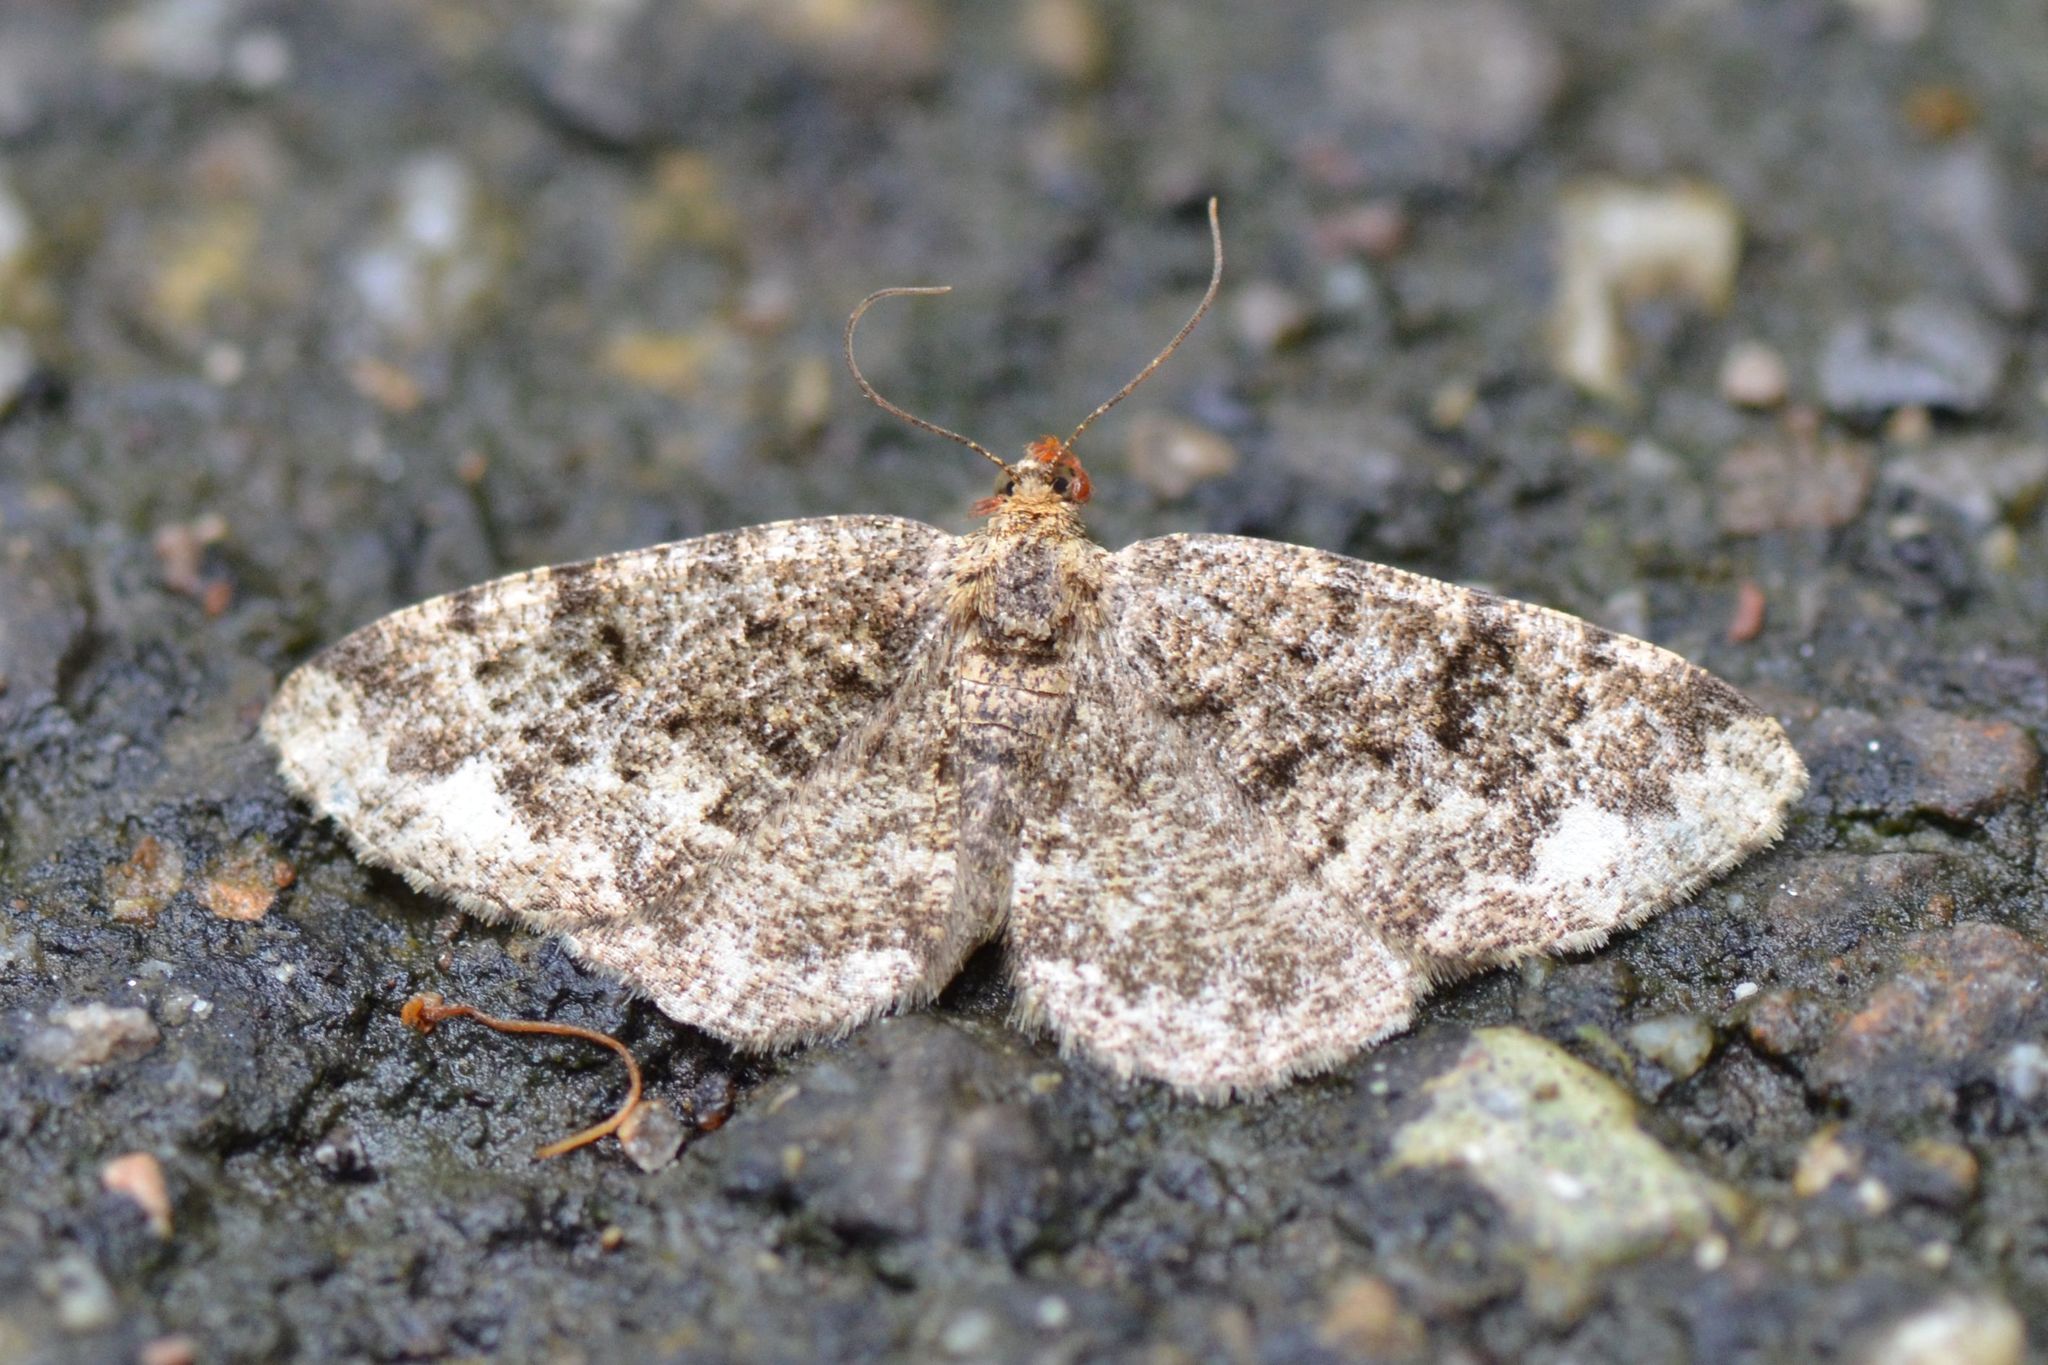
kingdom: Animalia
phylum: Arthropoda
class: Insecta
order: Lepidoptera
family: Geometridae
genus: Parectropis
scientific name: Parectropis similaria
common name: Brindled white-spot
